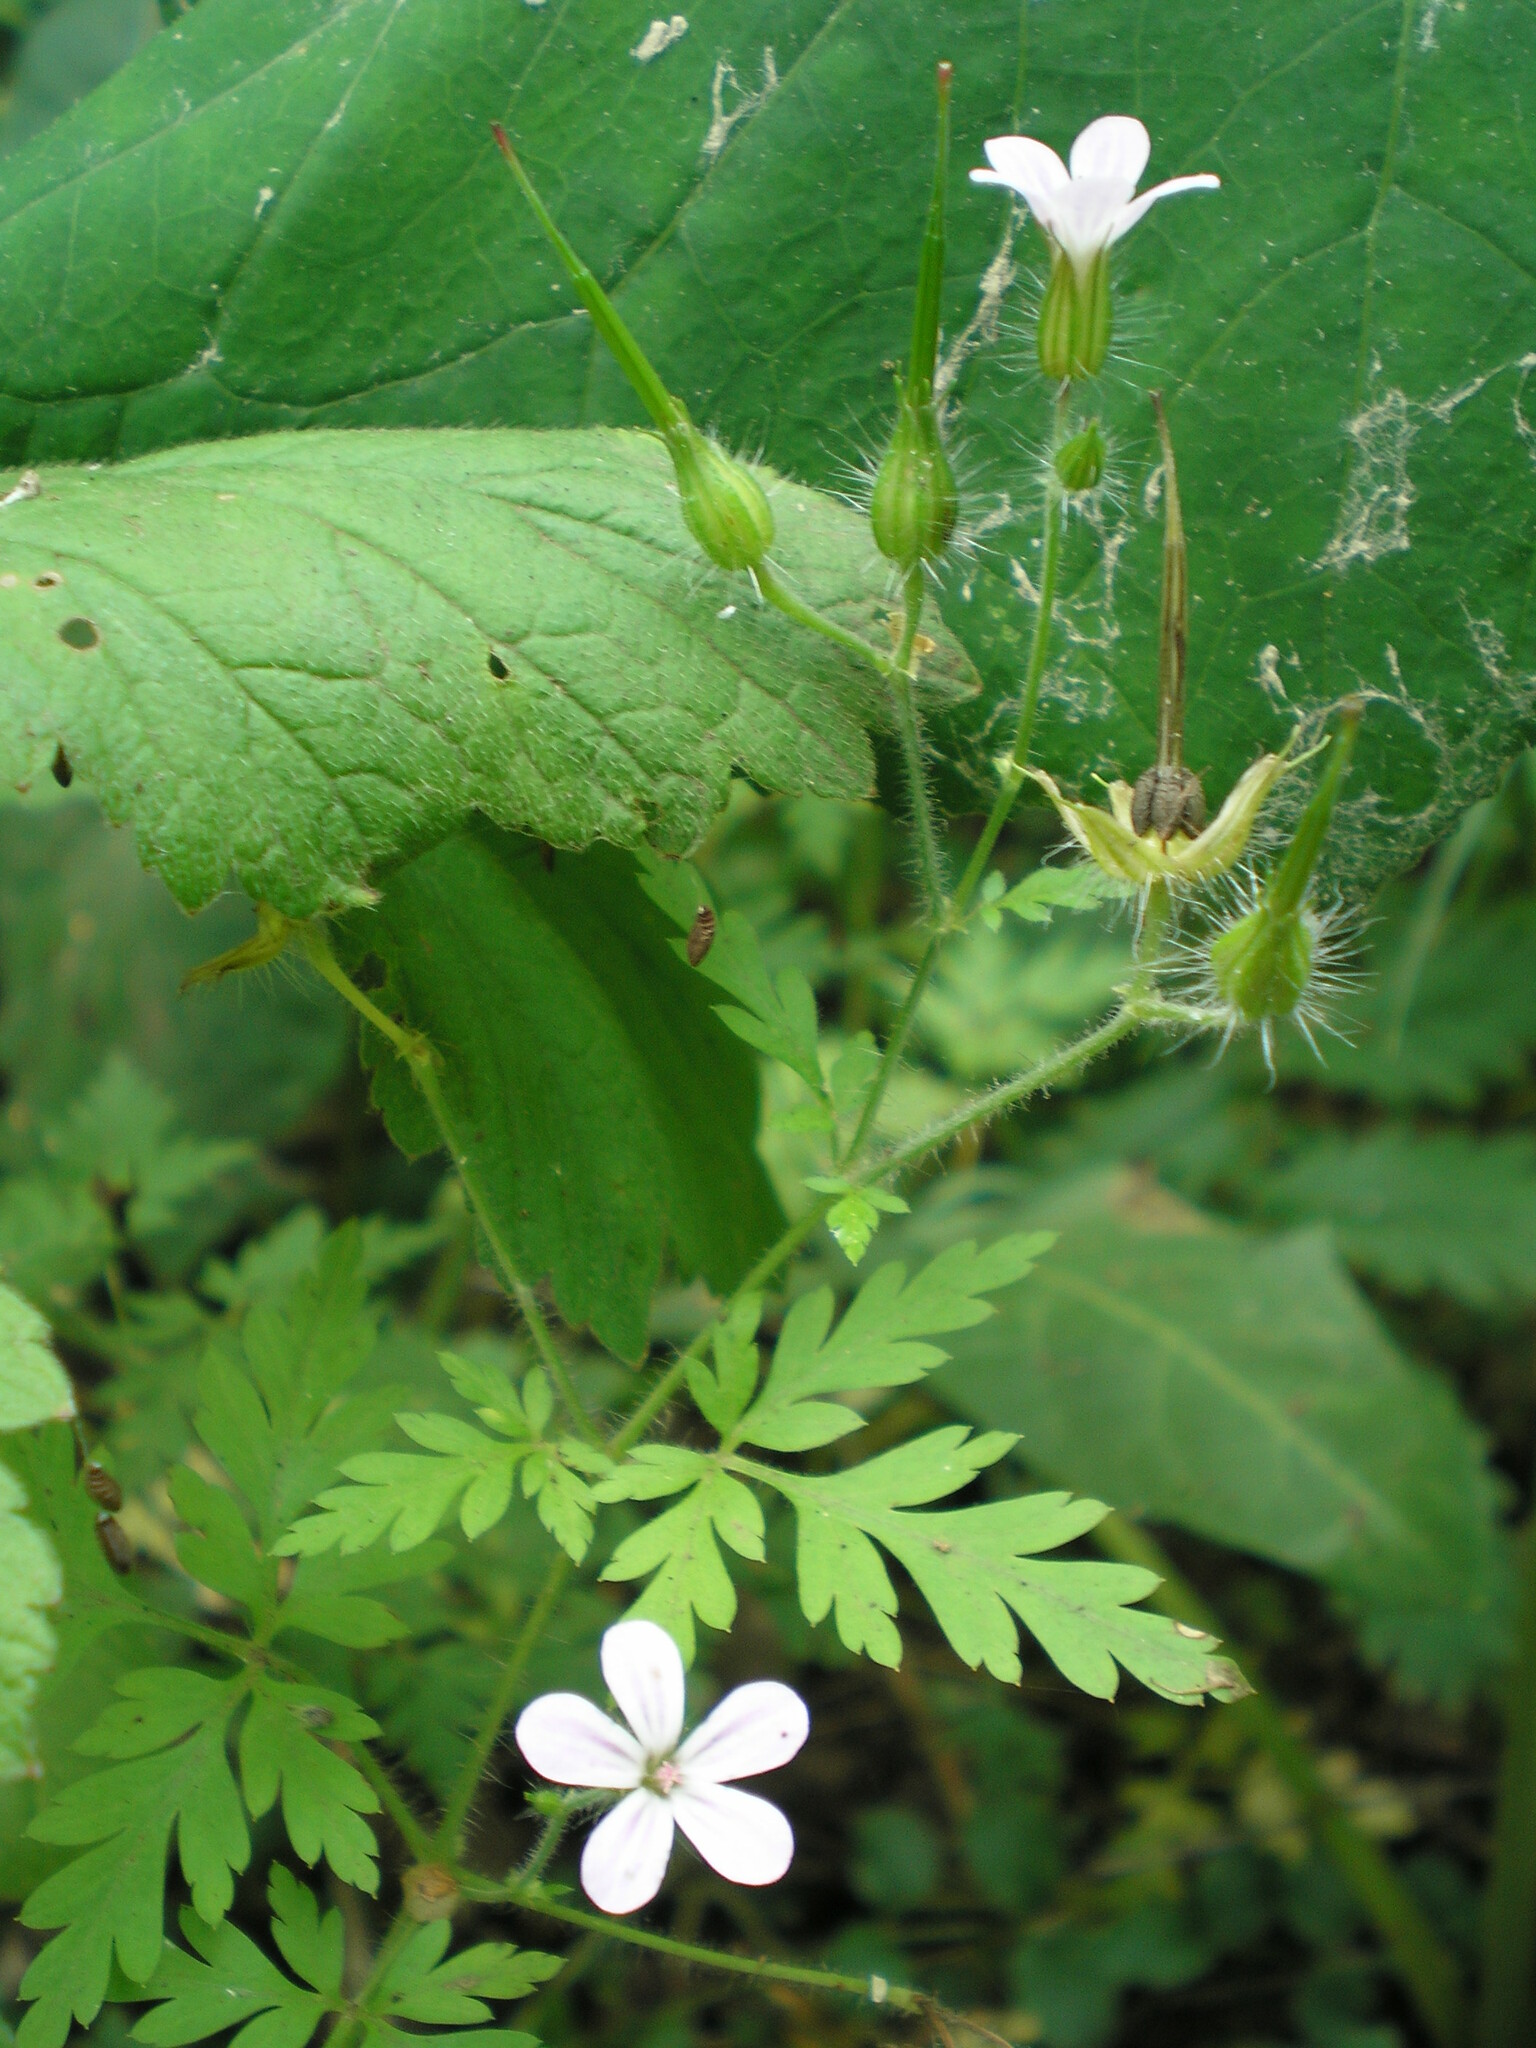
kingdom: Plantae
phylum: Tracheophyta
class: Magnoliopsida
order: Geraniales
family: Geraniaceae
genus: Geranium
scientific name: Geranium robertianum
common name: Herb-robert
